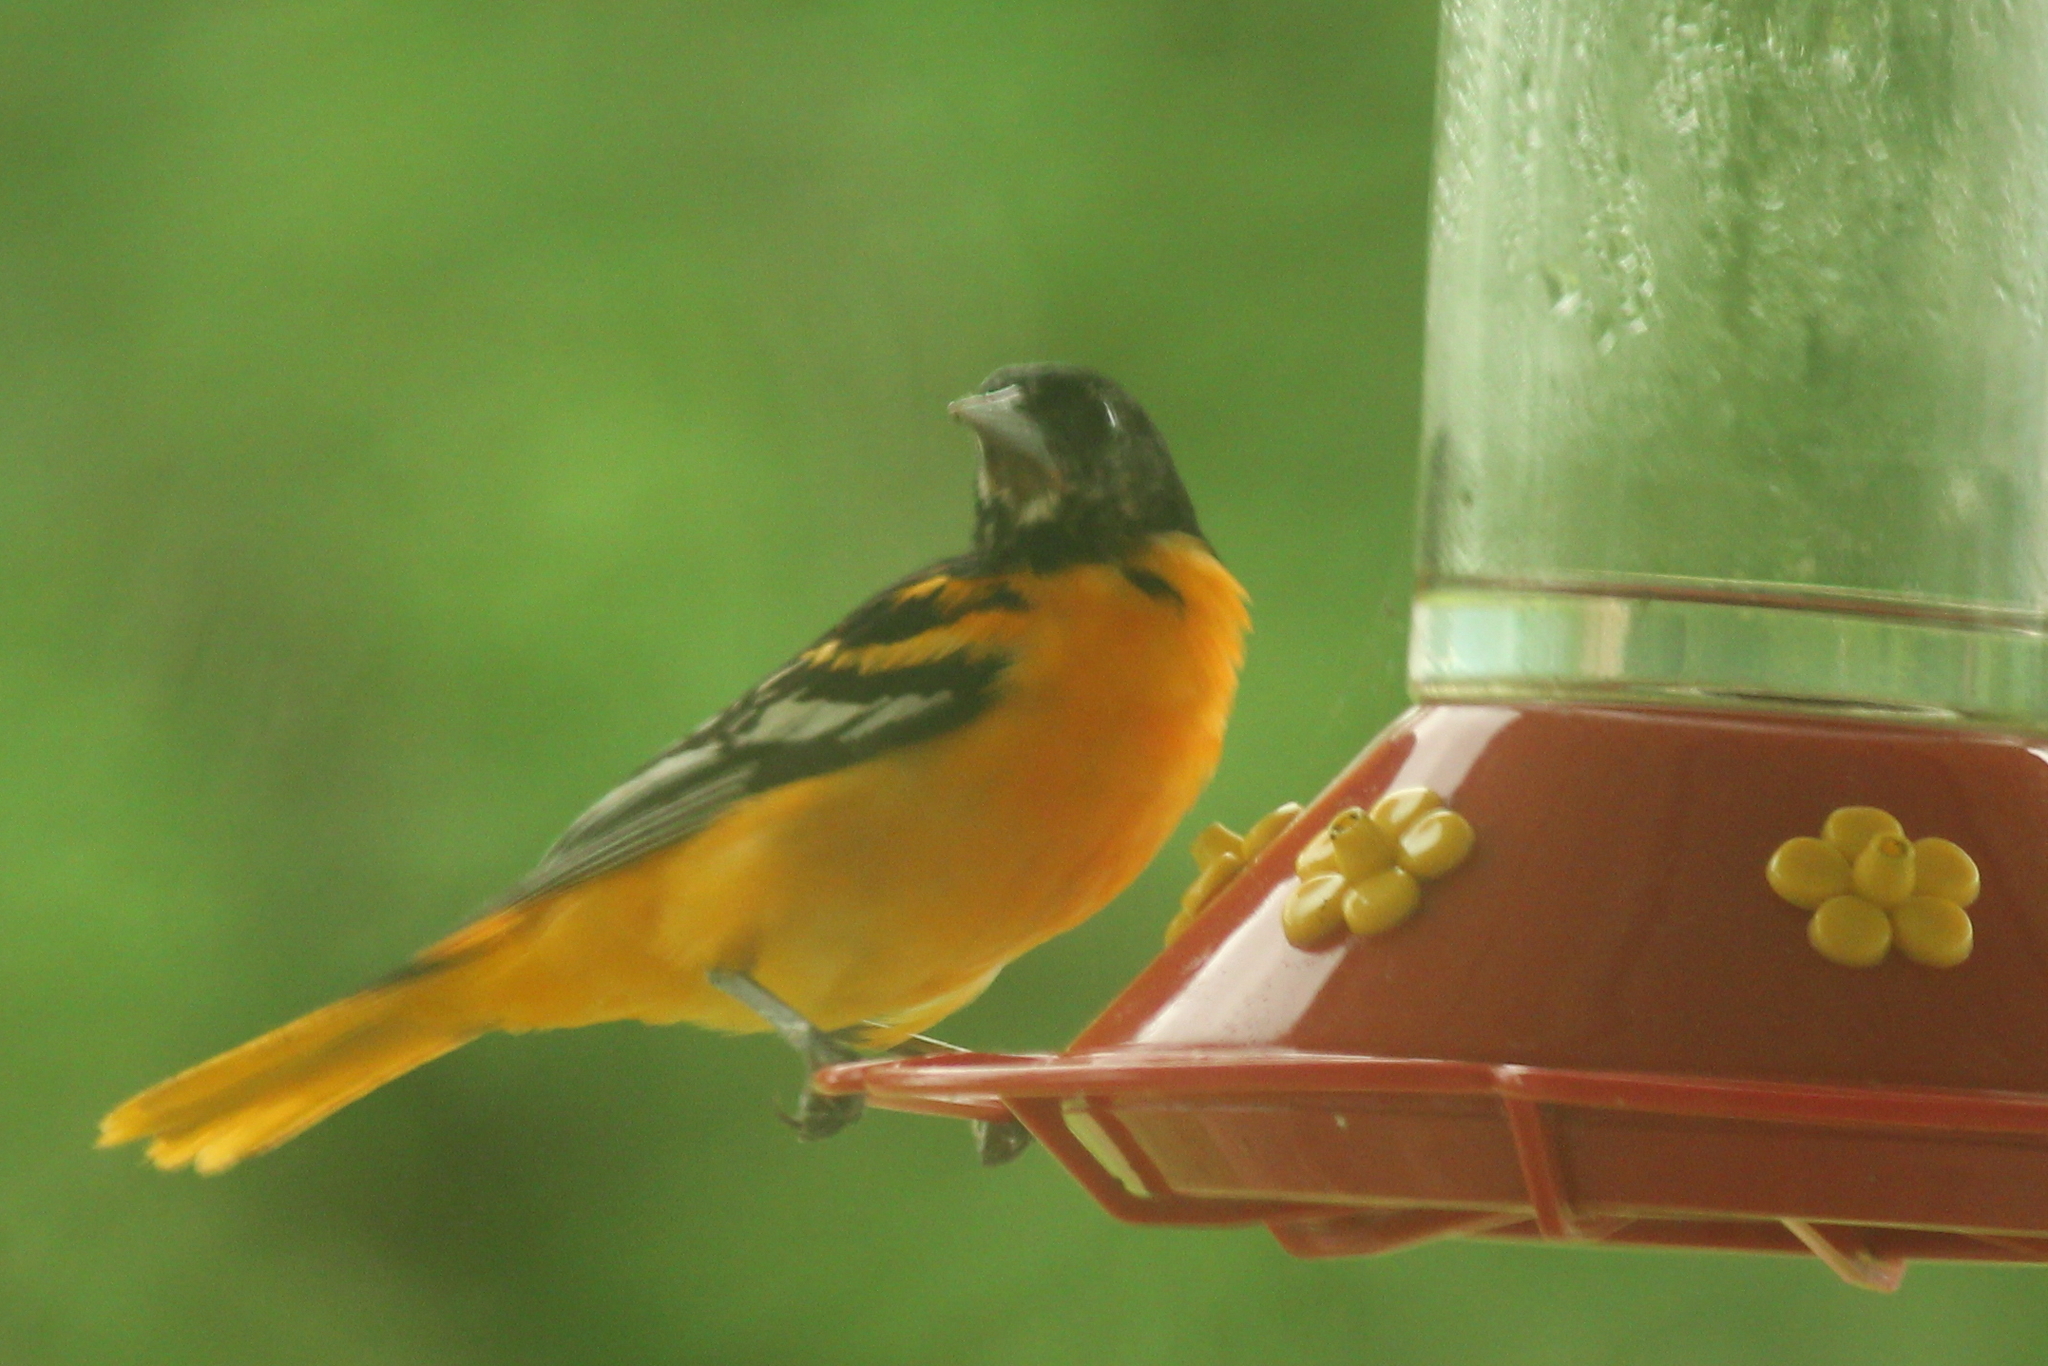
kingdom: Animalia
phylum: Chordata
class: Aves
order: Passeriformes
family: Icteridae
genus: Icterus
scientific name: Icterus galbula
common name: Baltimore oriole
